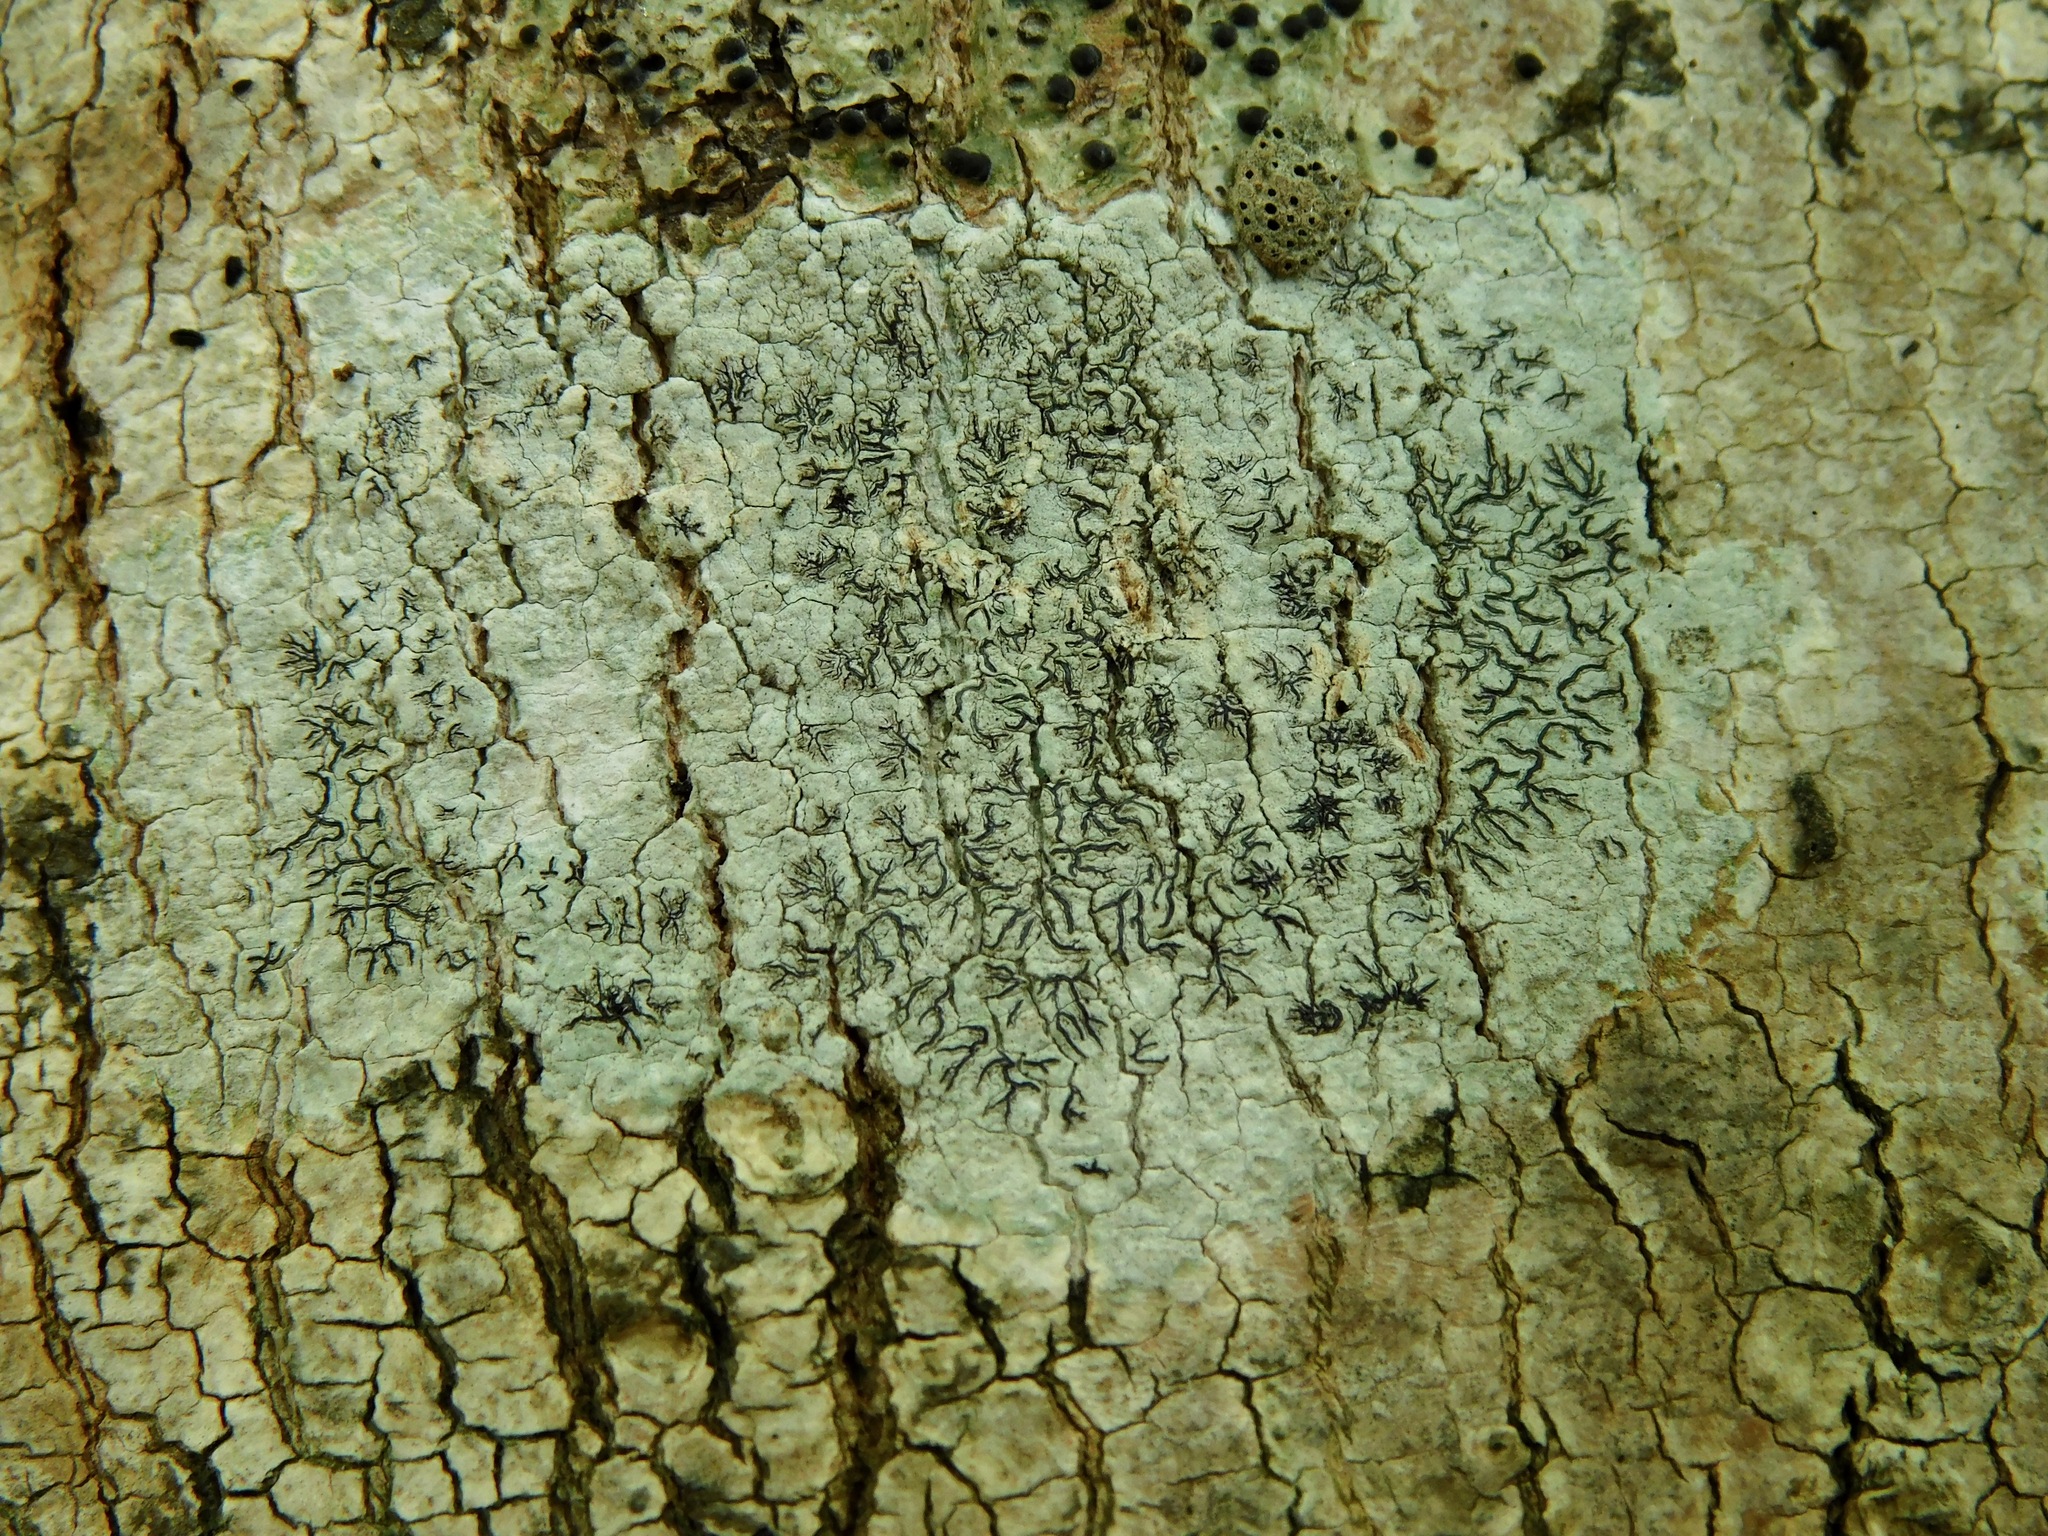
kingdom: Fungi
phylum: Ascomycota
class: Lecanoromycetes
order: Ostropales
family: Graphidaceae
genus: Graphis
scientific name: Graphis scripta
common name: Script lichen
